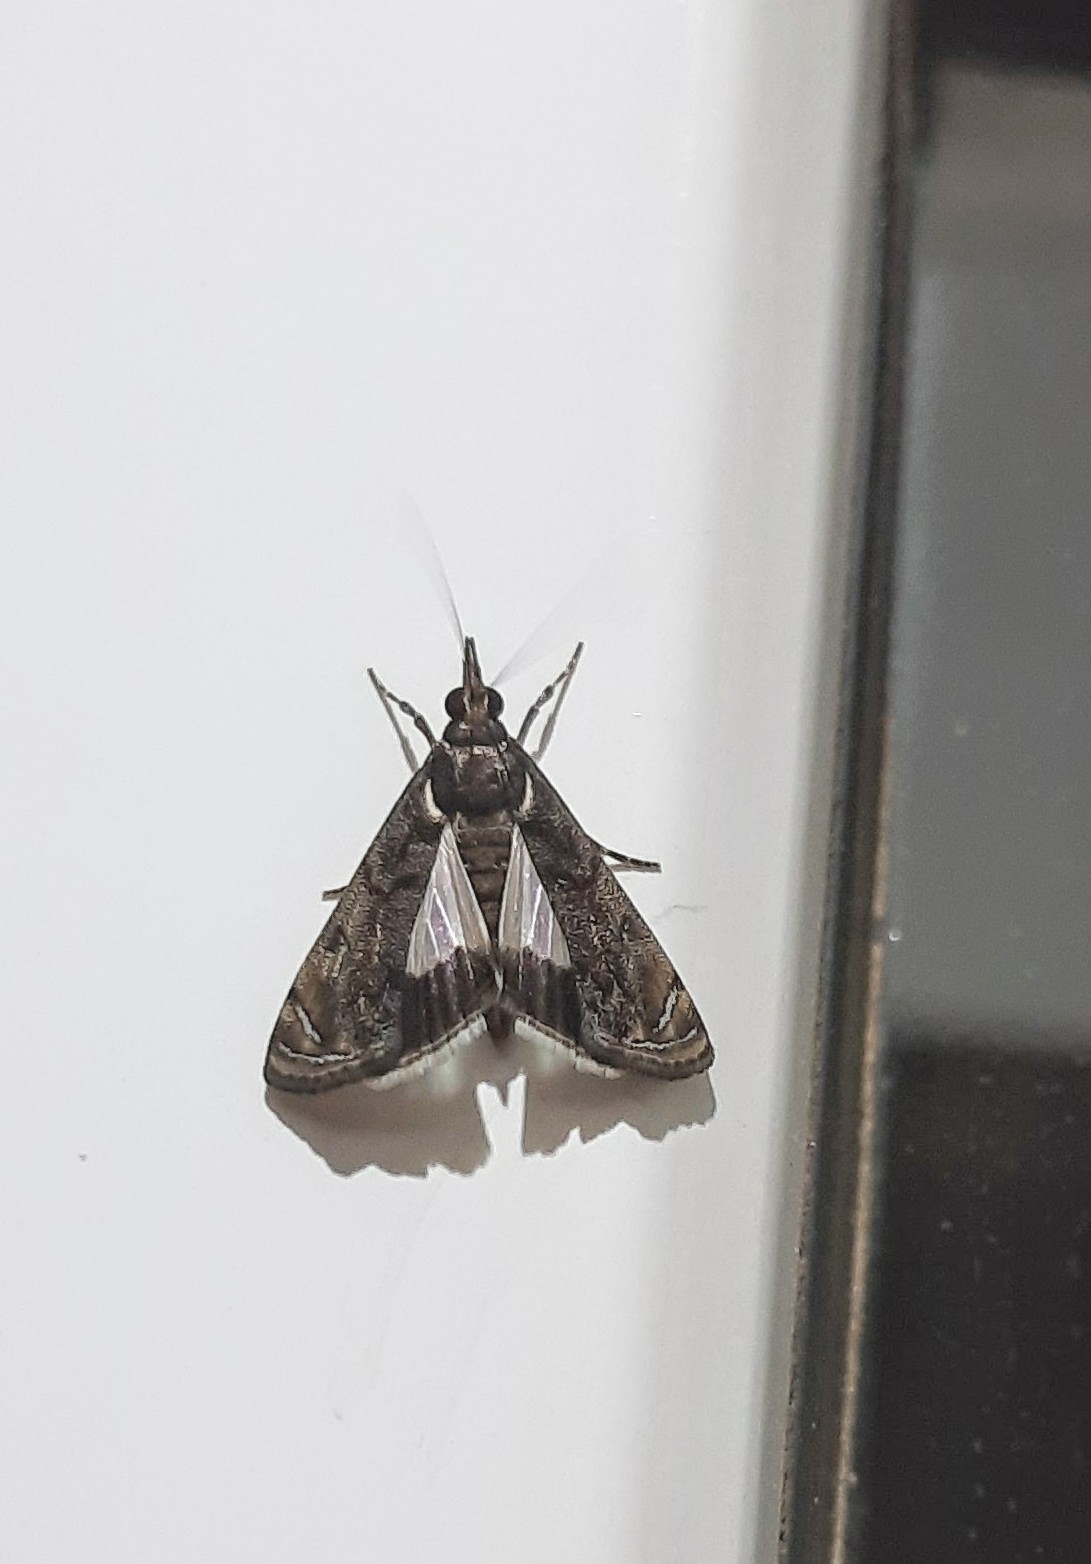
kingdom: Animalia
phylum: Arthropoda
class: Insecta
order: Lepidoptera
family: Crambidae
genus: Noorda
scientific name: Noorda blitealis
